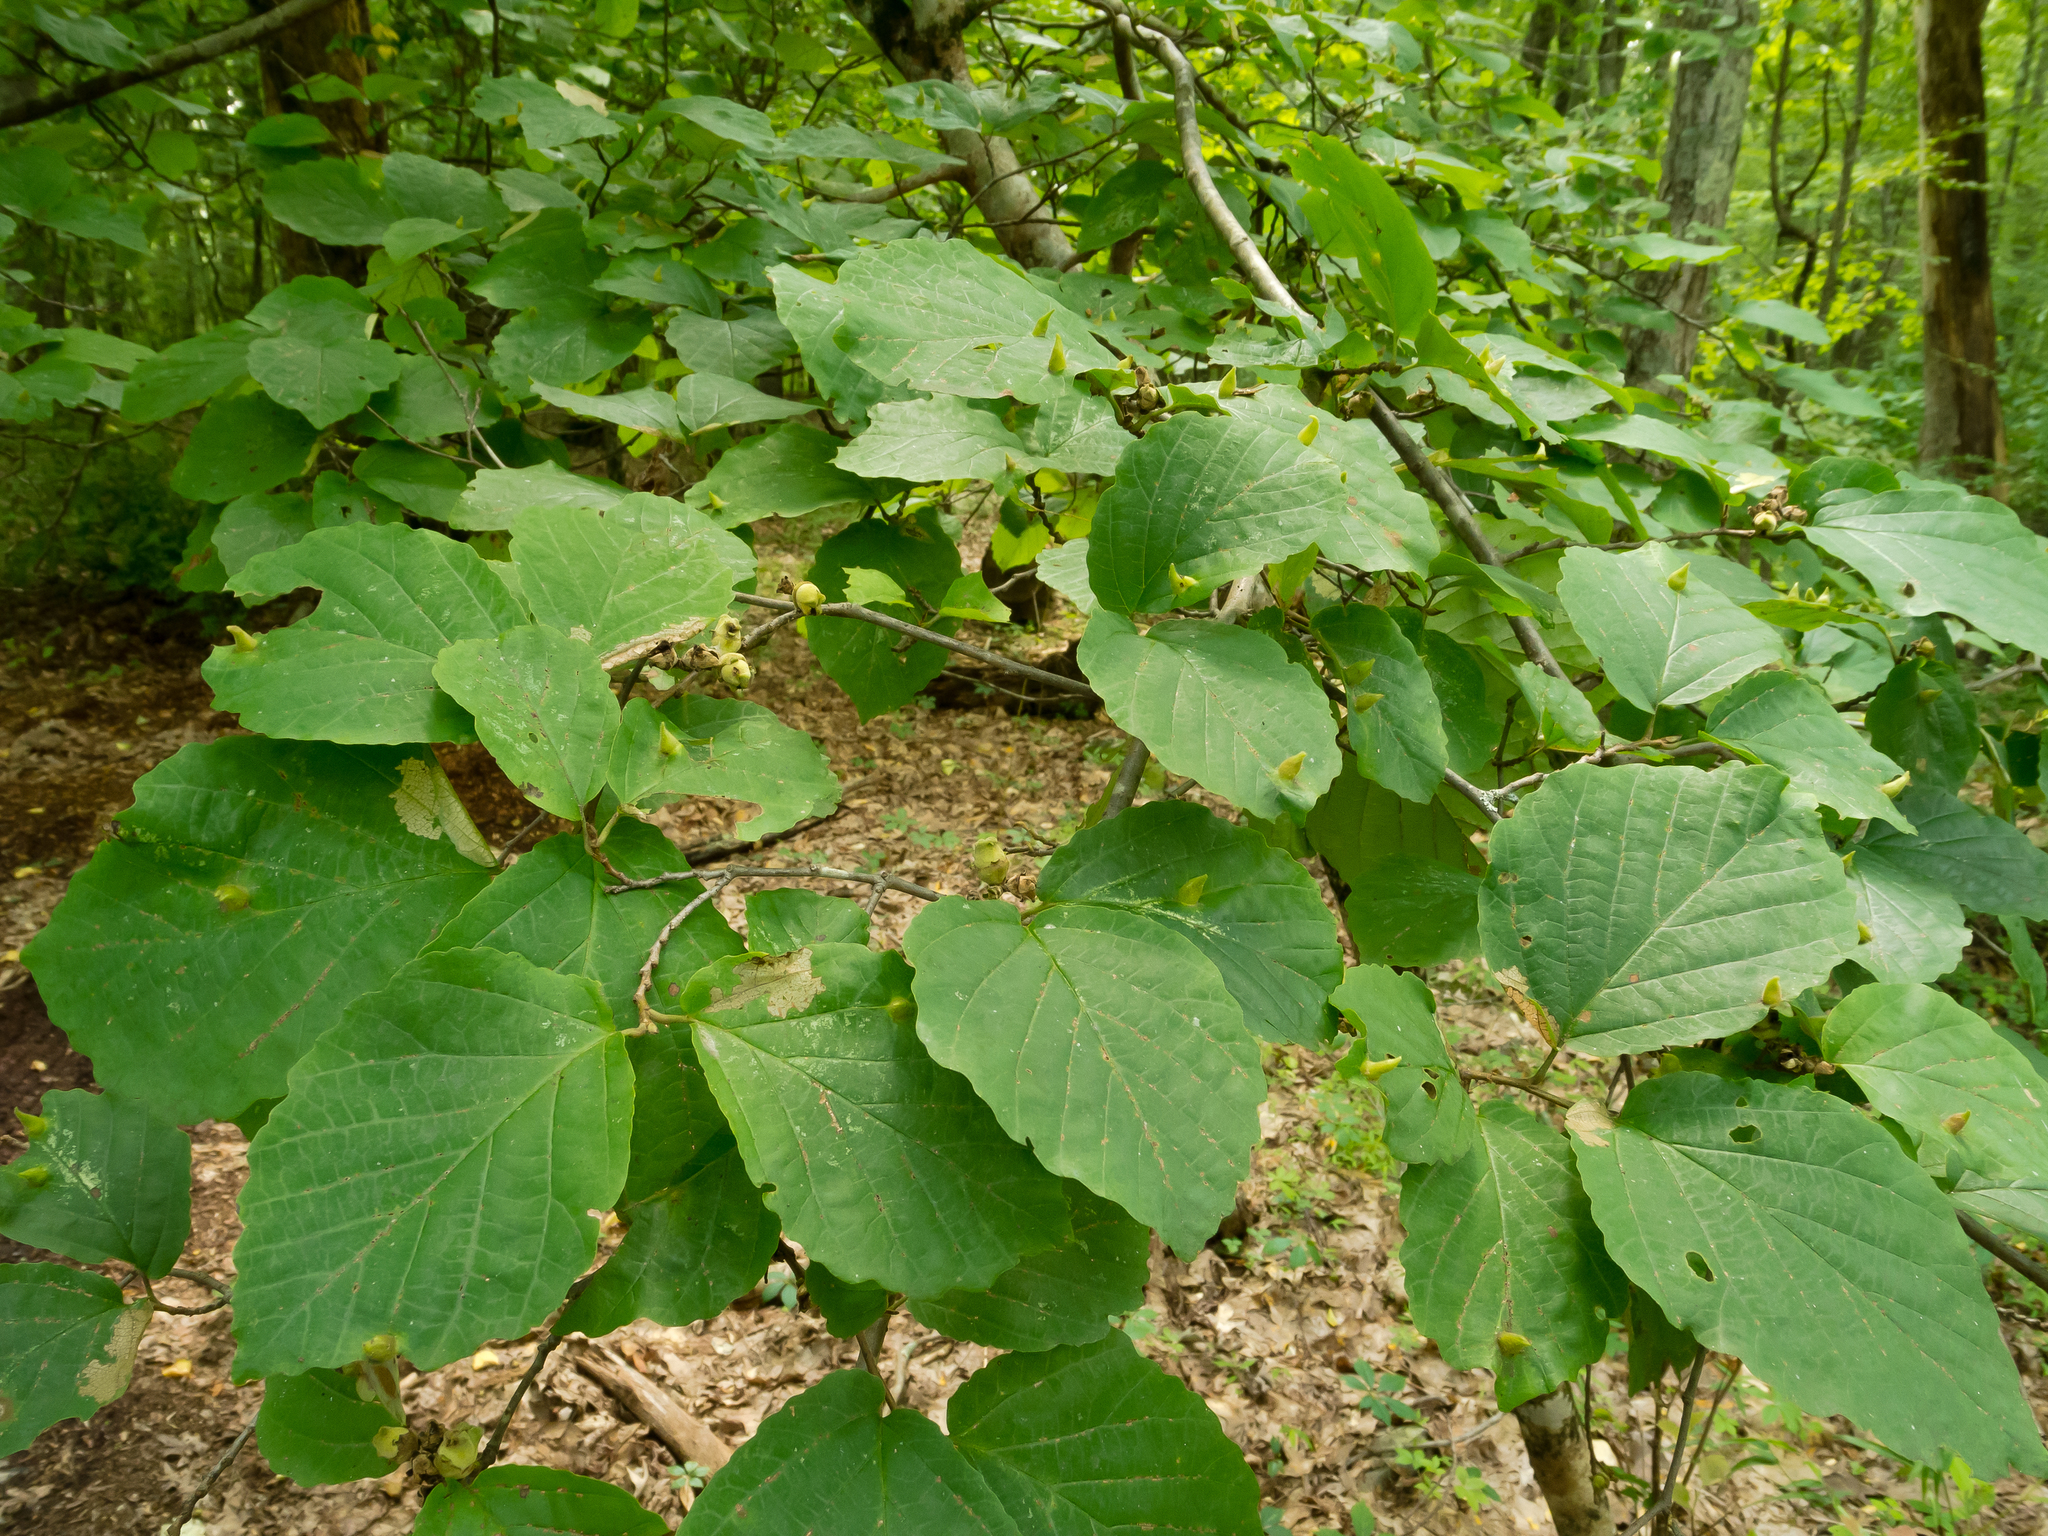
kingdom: Animalia
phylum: Arthropoda
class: Insecta
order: Hemiptera
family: Aphididae
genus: Hormaphis
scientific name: Hormaphis hamamelidis
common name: Witch-hazel cone gall aphid
